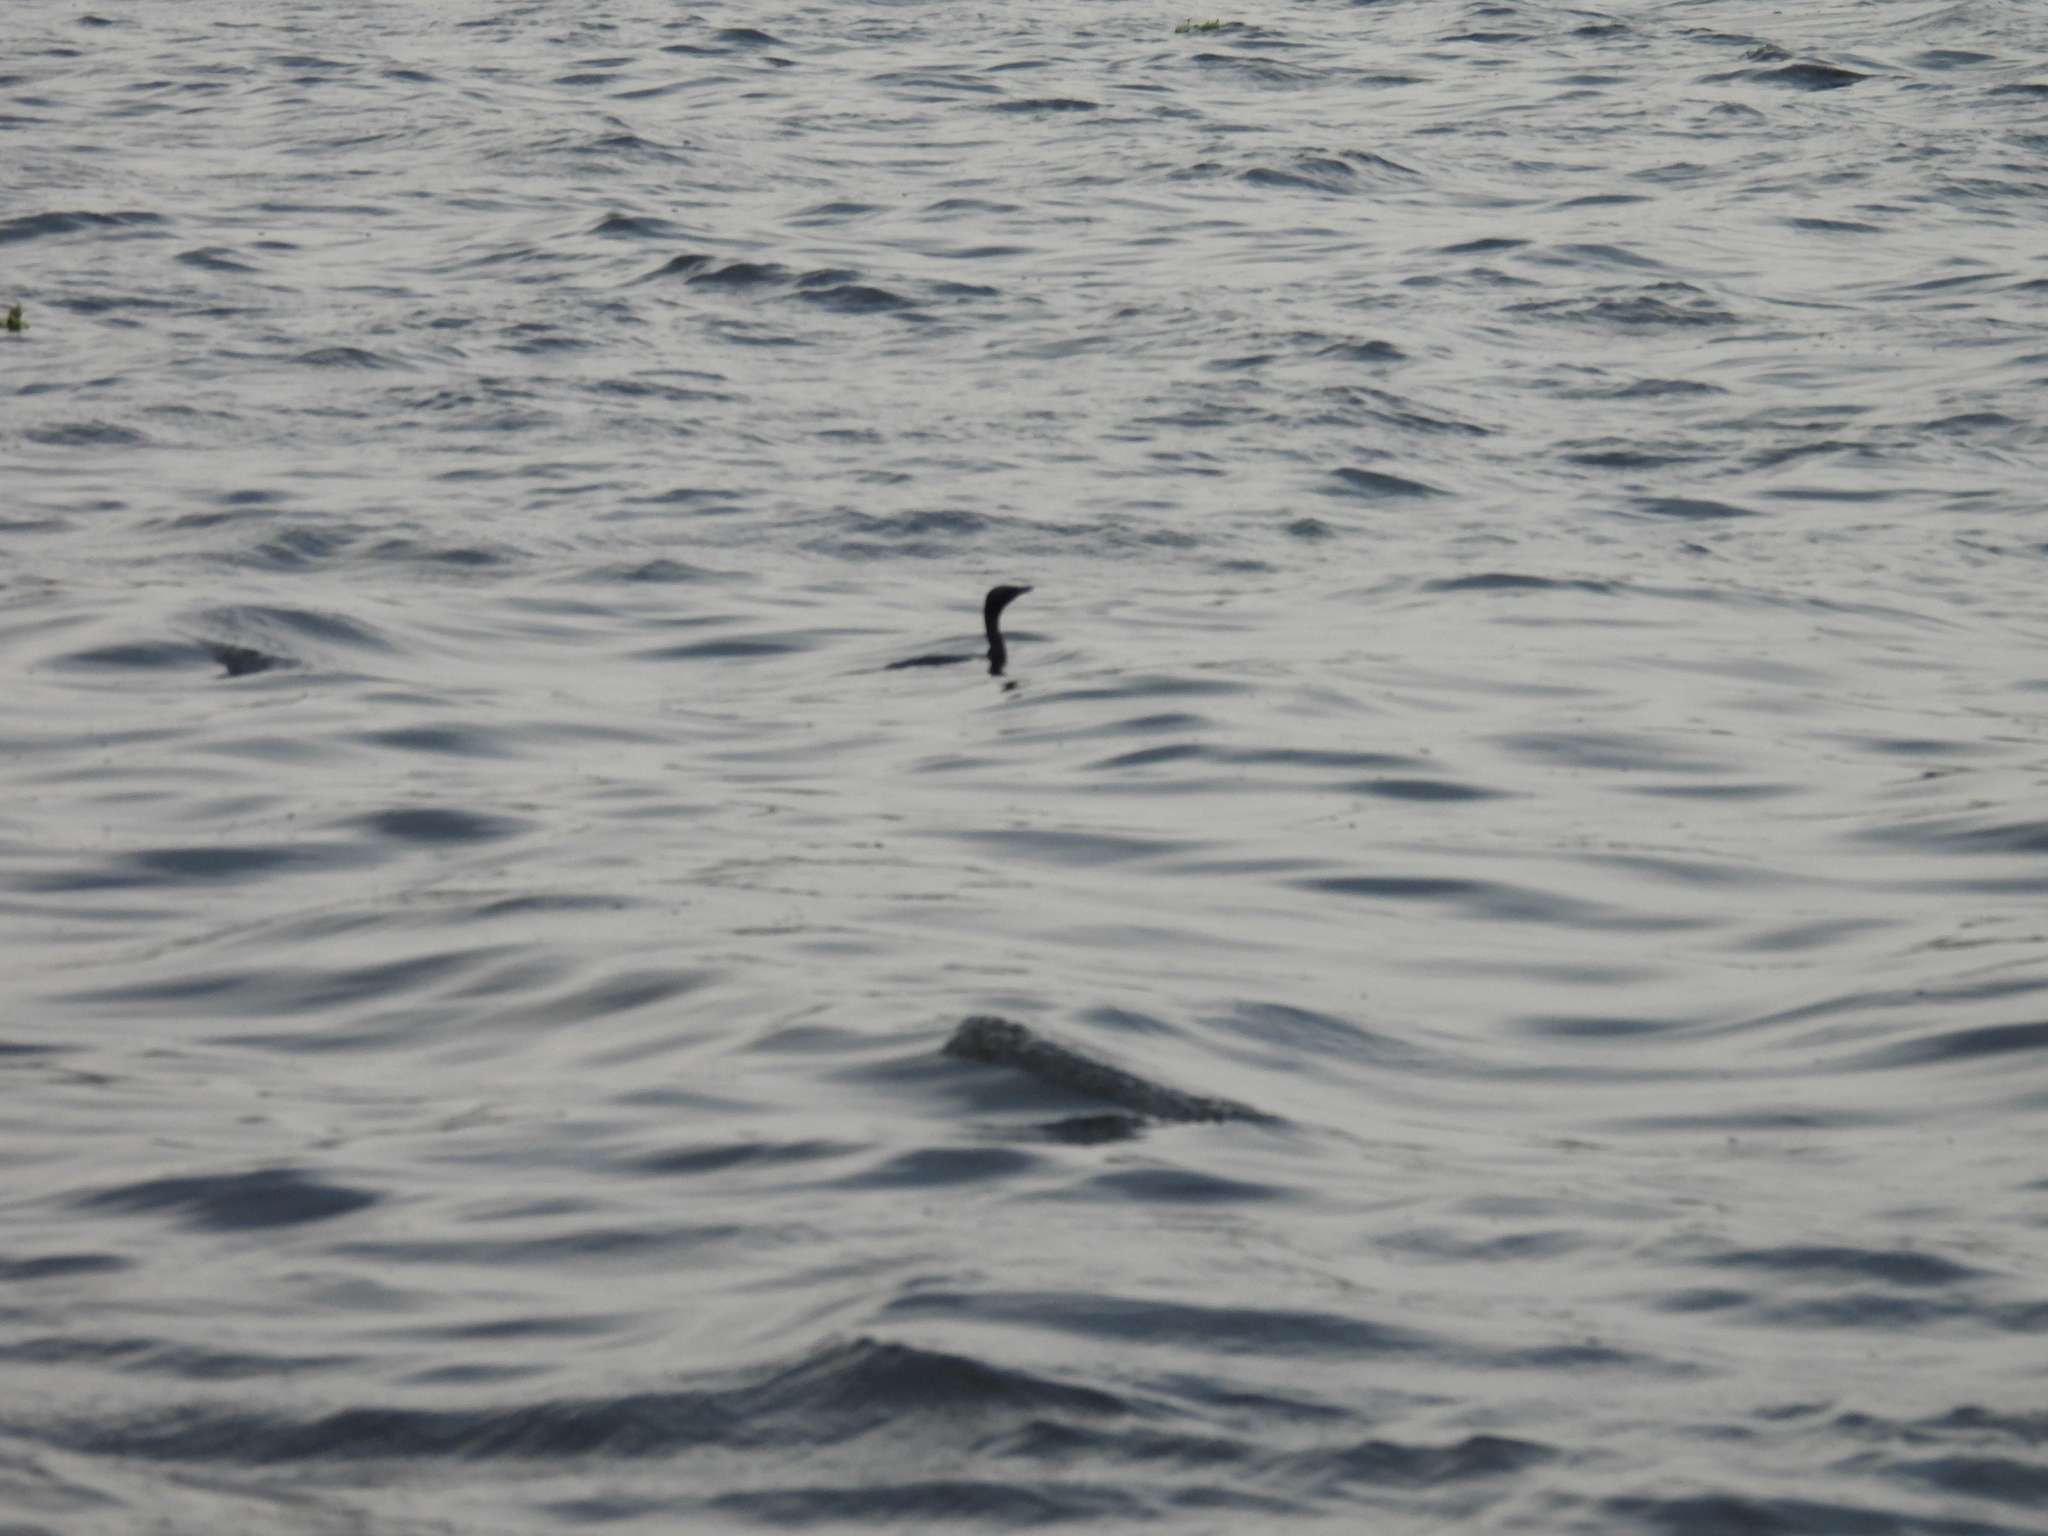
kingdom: Animalia
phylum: Chordata
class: Aves
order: Suliformes
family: Phalacrocoracidae
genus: Microcarbo
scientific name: Microcarbo niger
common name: Little cormorant
